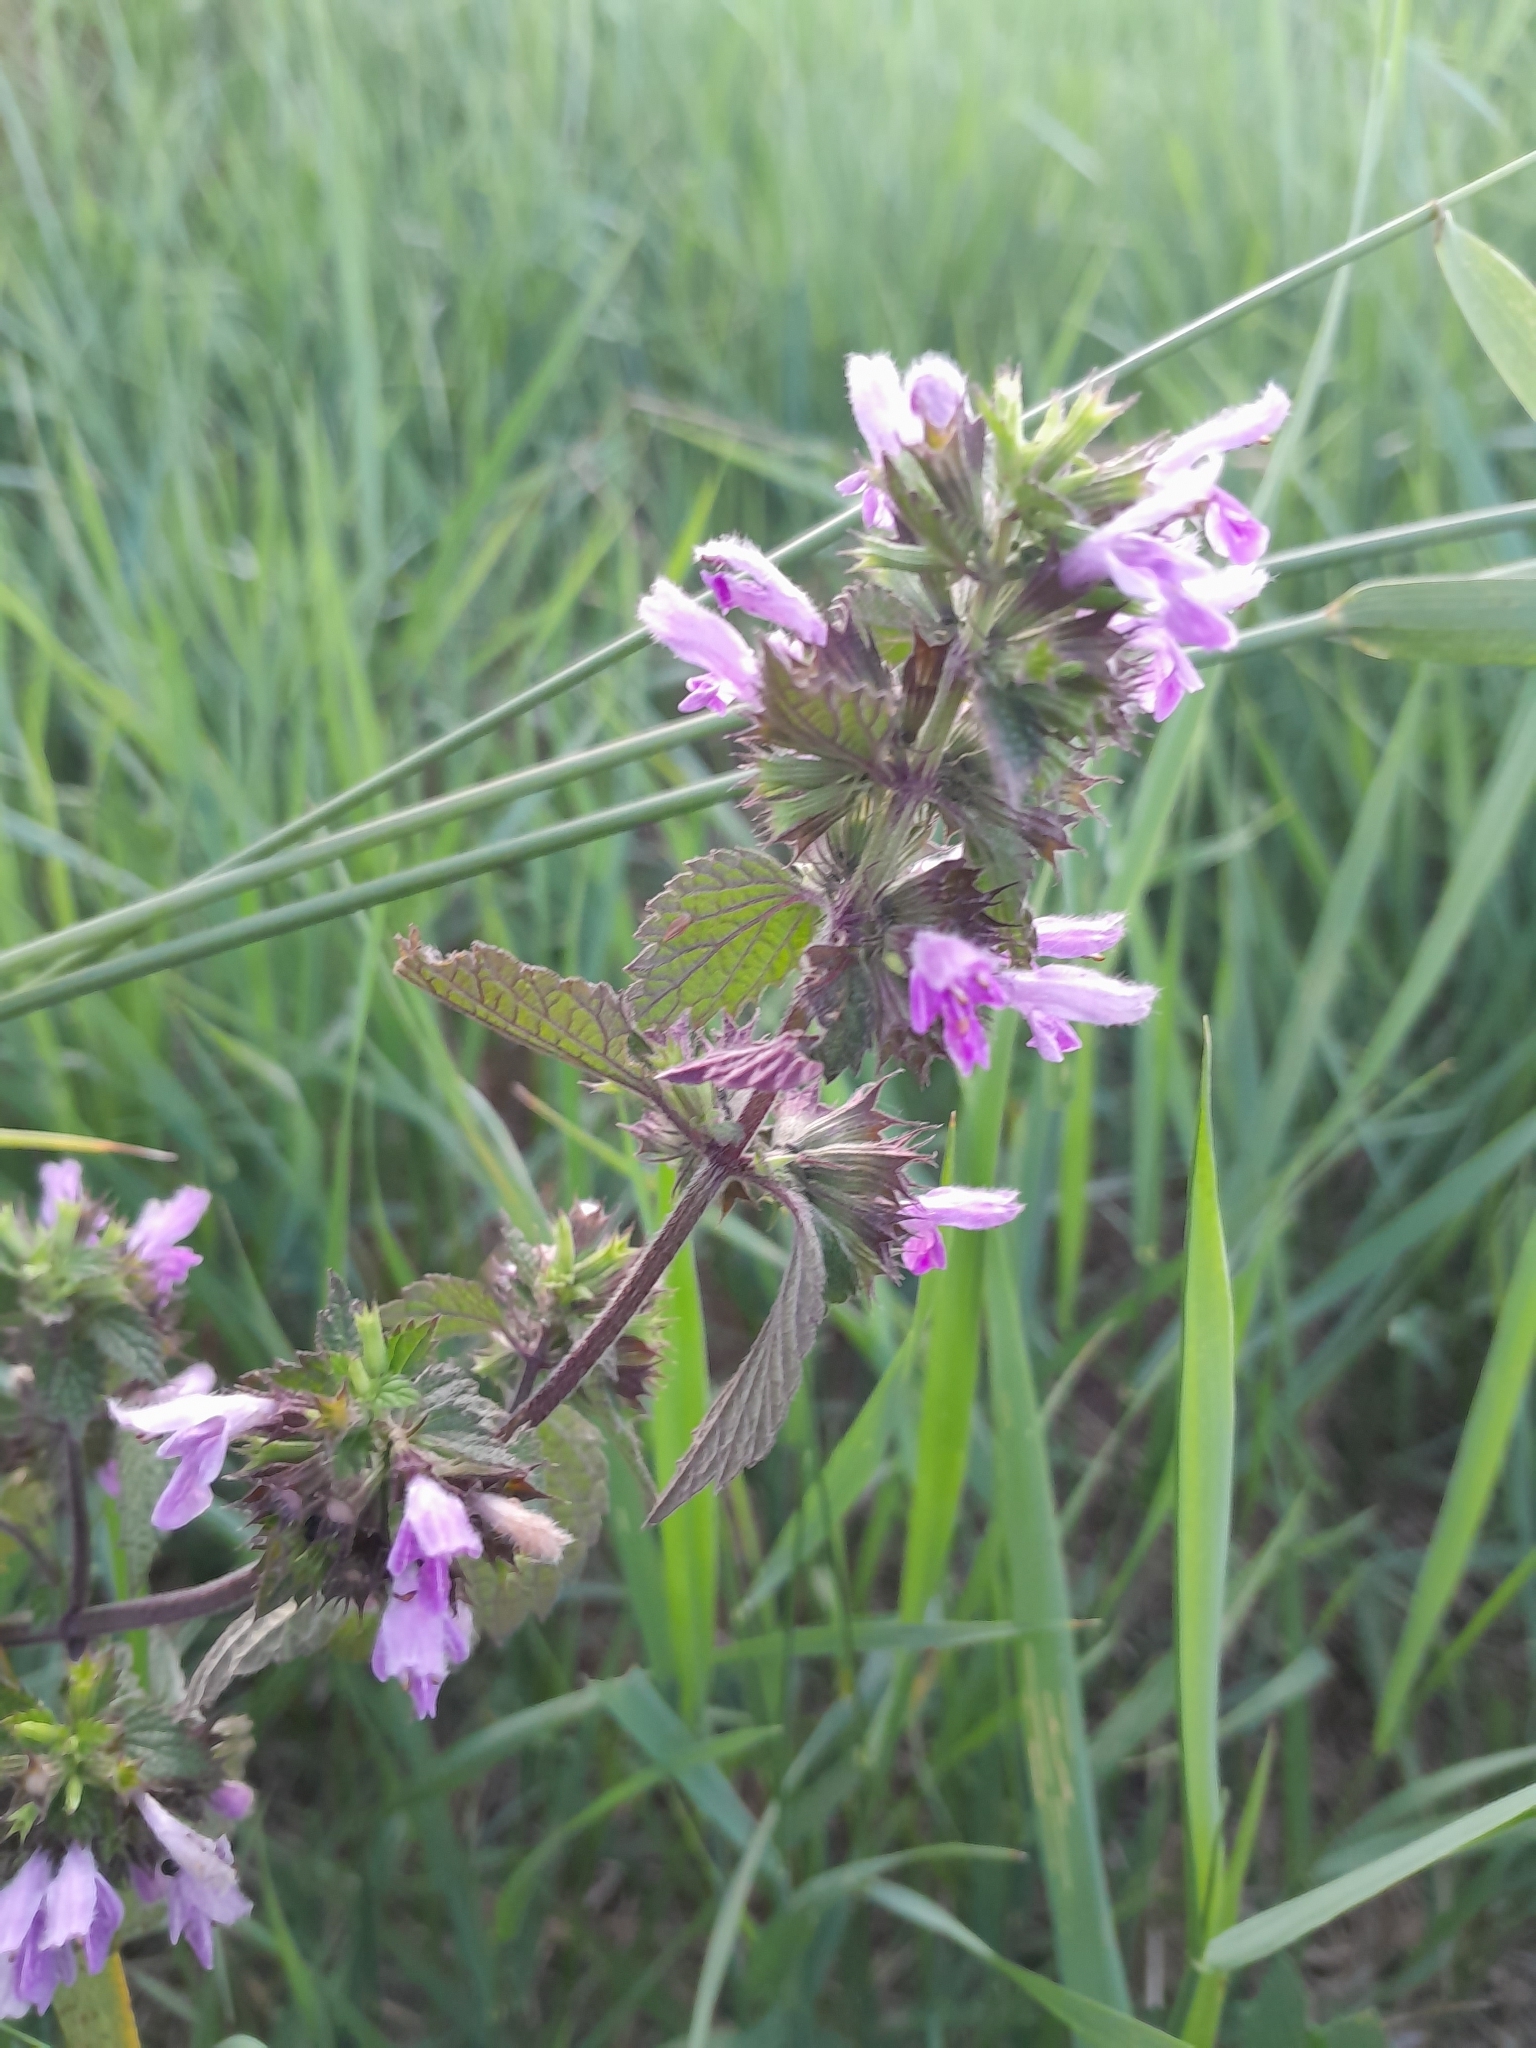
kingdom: Plantae
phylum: Tracheophyta
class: Magnoliopsida
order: Lamiales
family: Lamiaceae
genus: Ballota
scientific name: Ballota nigra
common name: Black horehound
